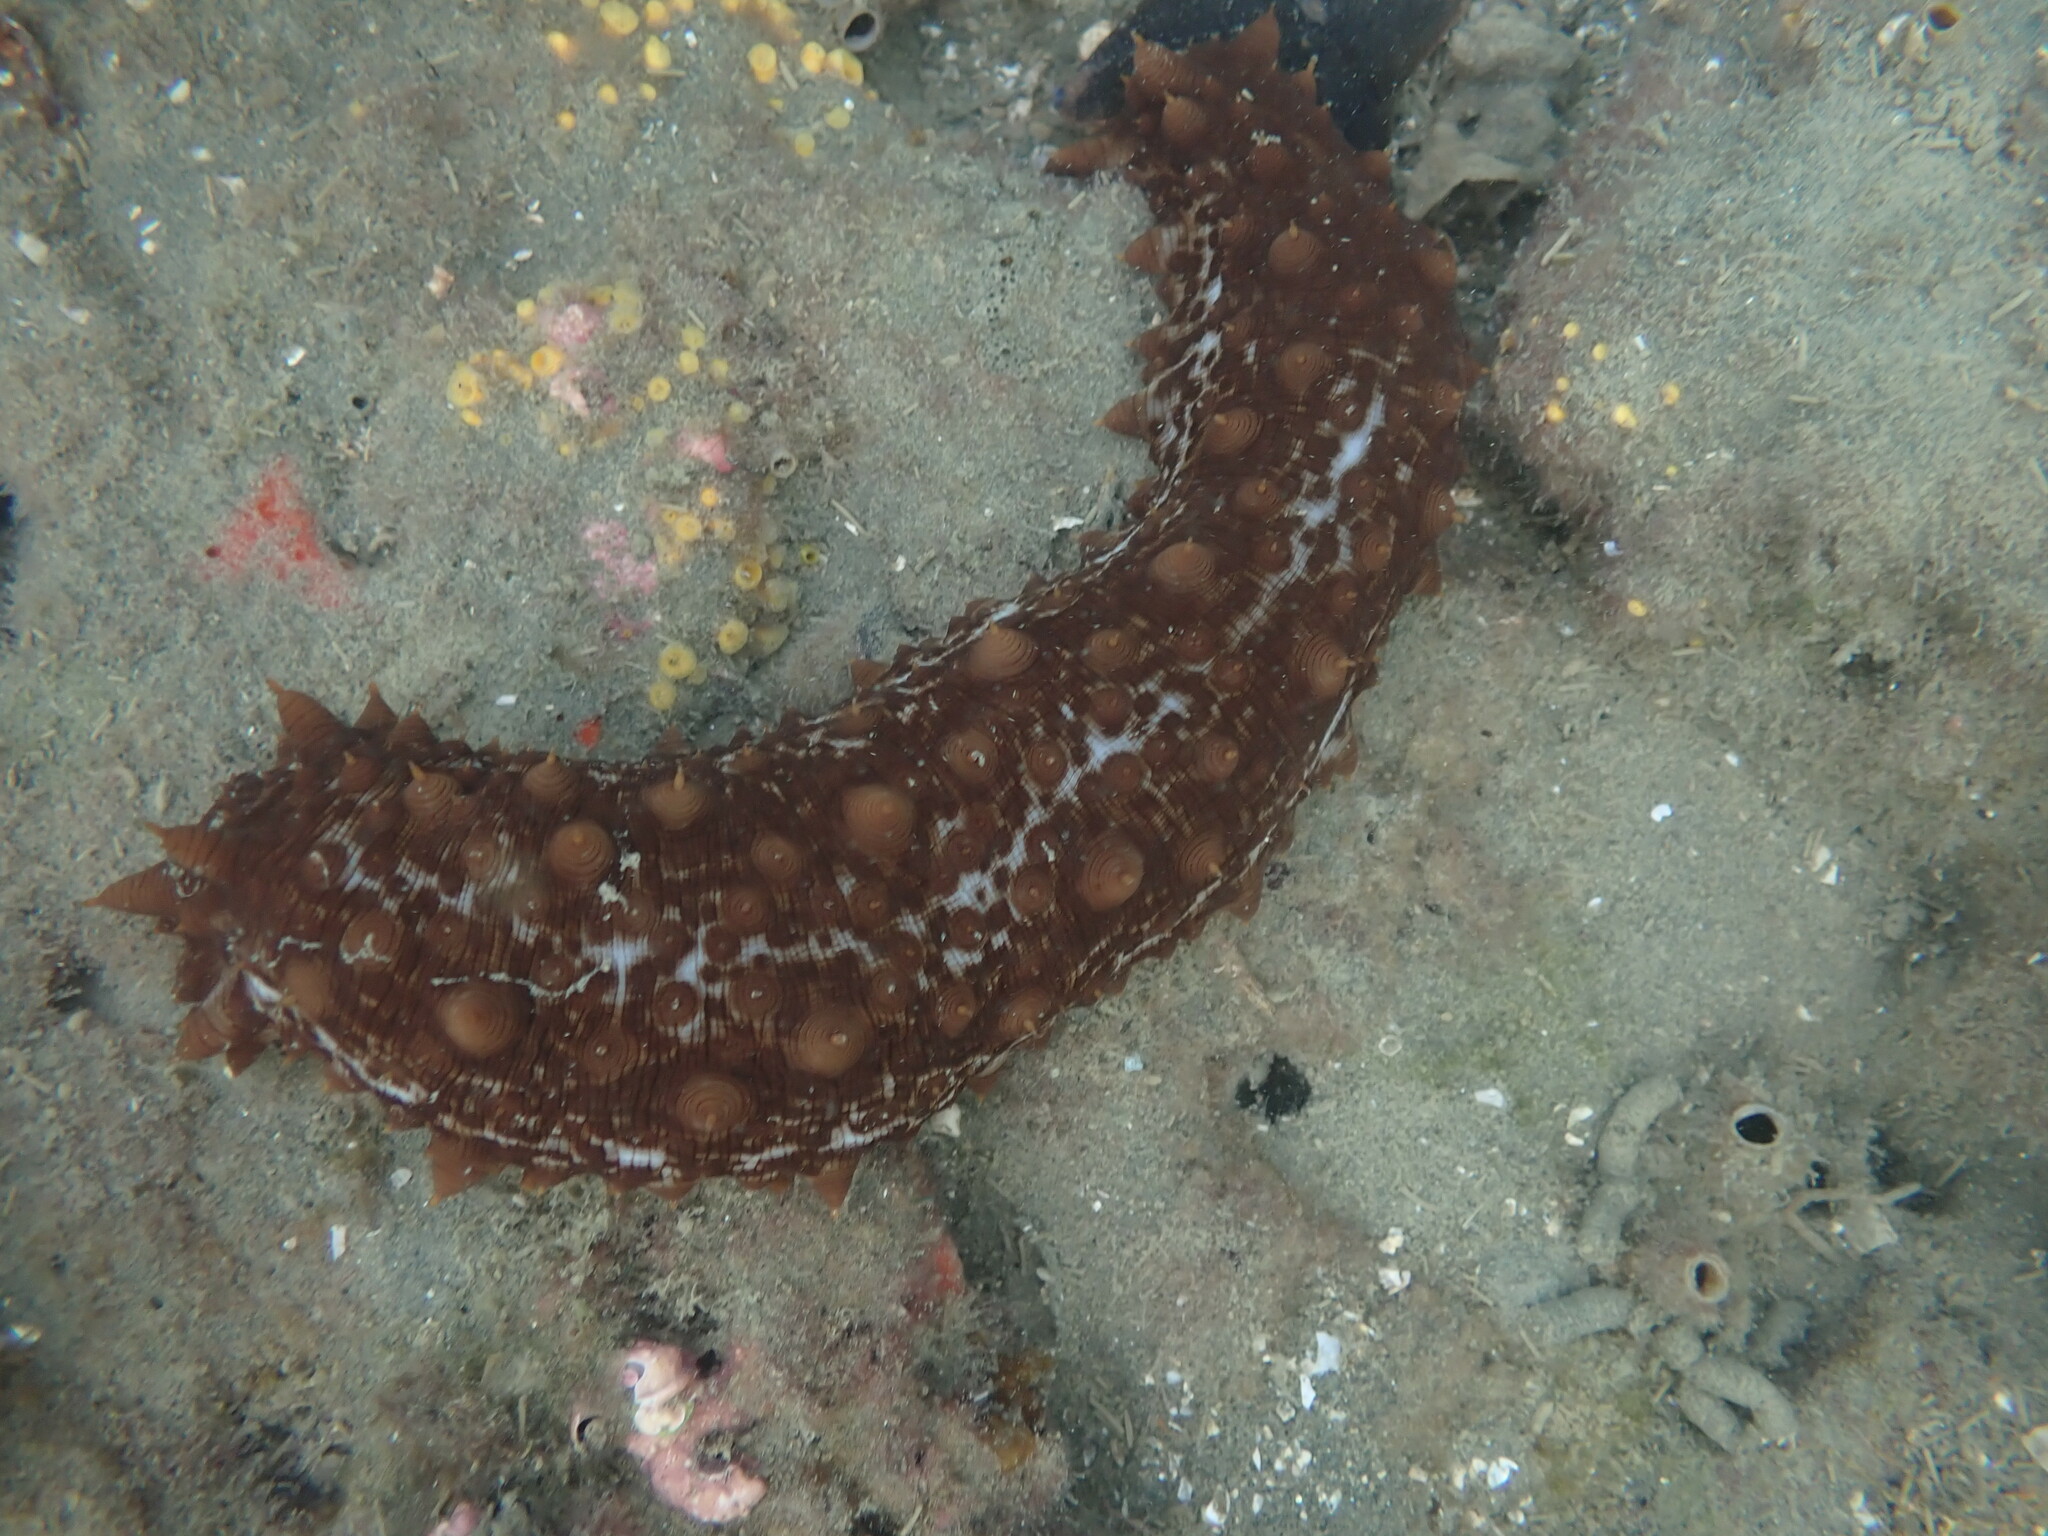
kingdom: Animalia
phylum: Echinodermata
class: Holothuroidea
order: Synallactida
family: Stichopodidae
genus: Australostichopus
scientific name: Australostichopus mollis
